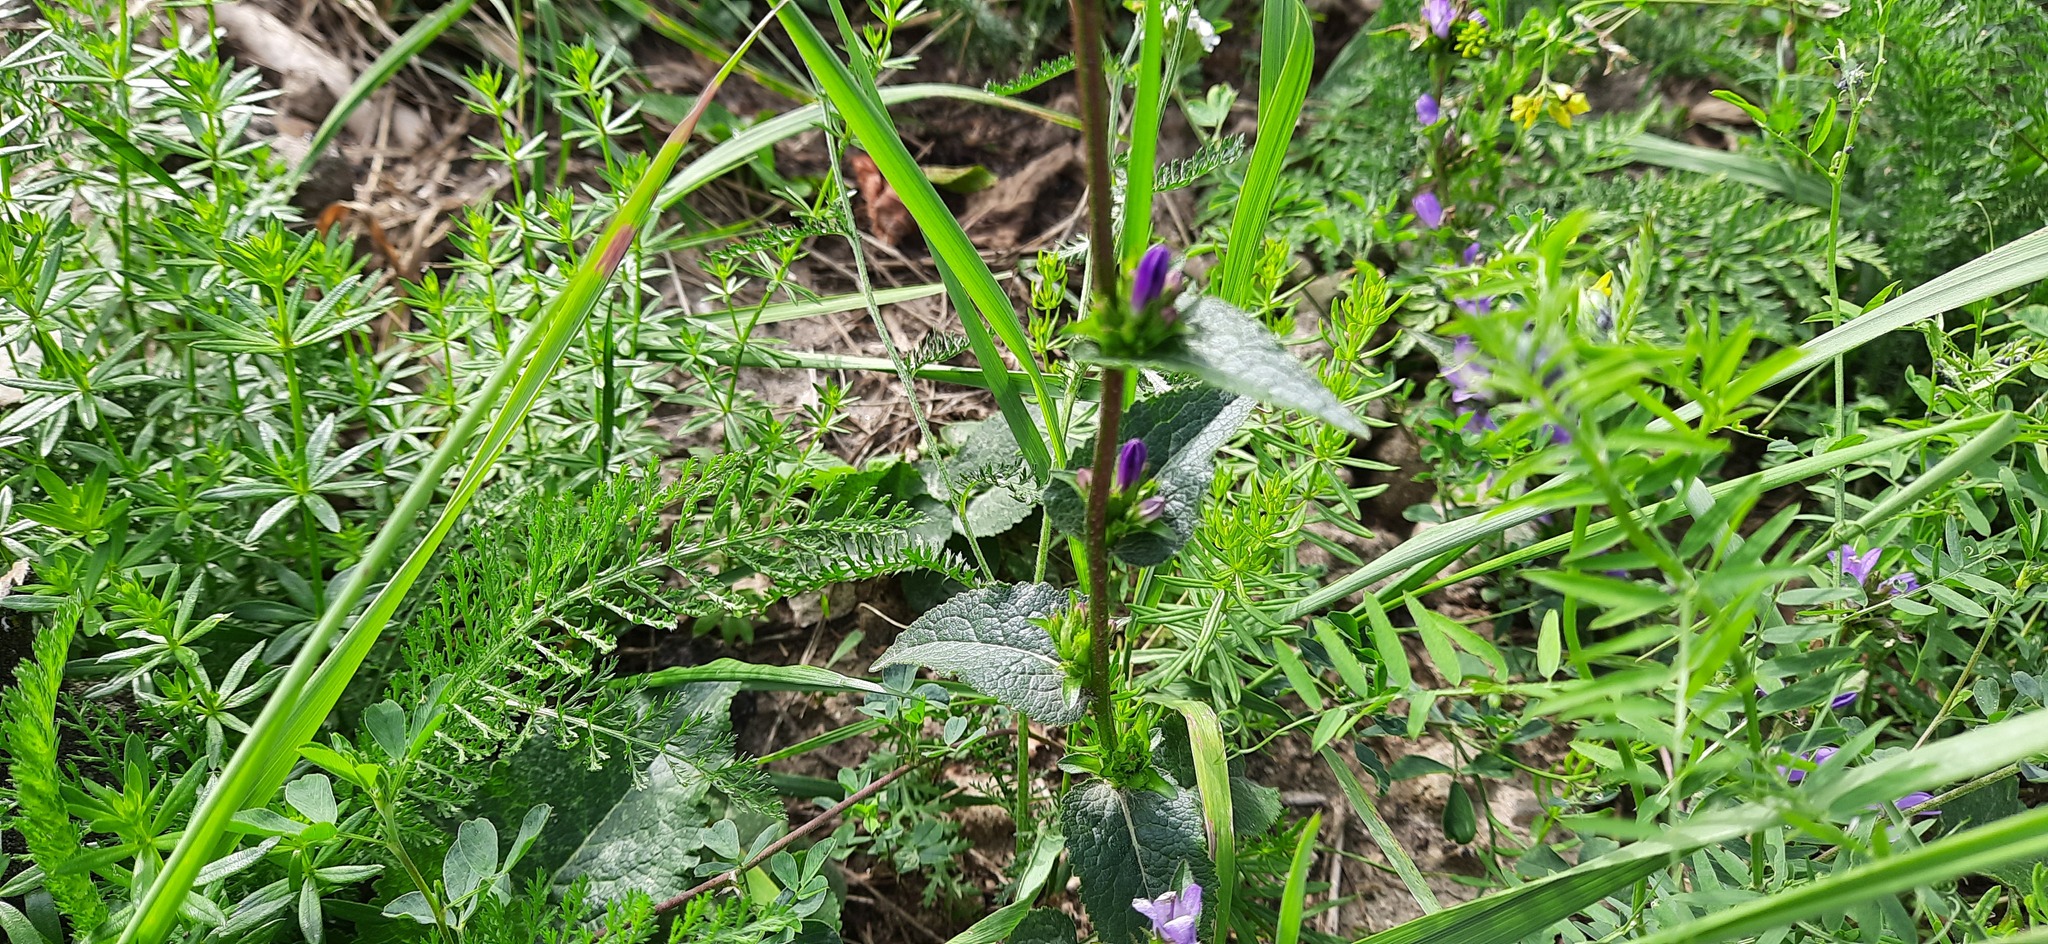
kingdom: Plantae
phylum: Tracheophyta
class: Magnoliopsida
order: Asterales
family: Campanulaceae
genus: Campanula
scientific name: Campanula glomerata
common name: Clustered bellflower
